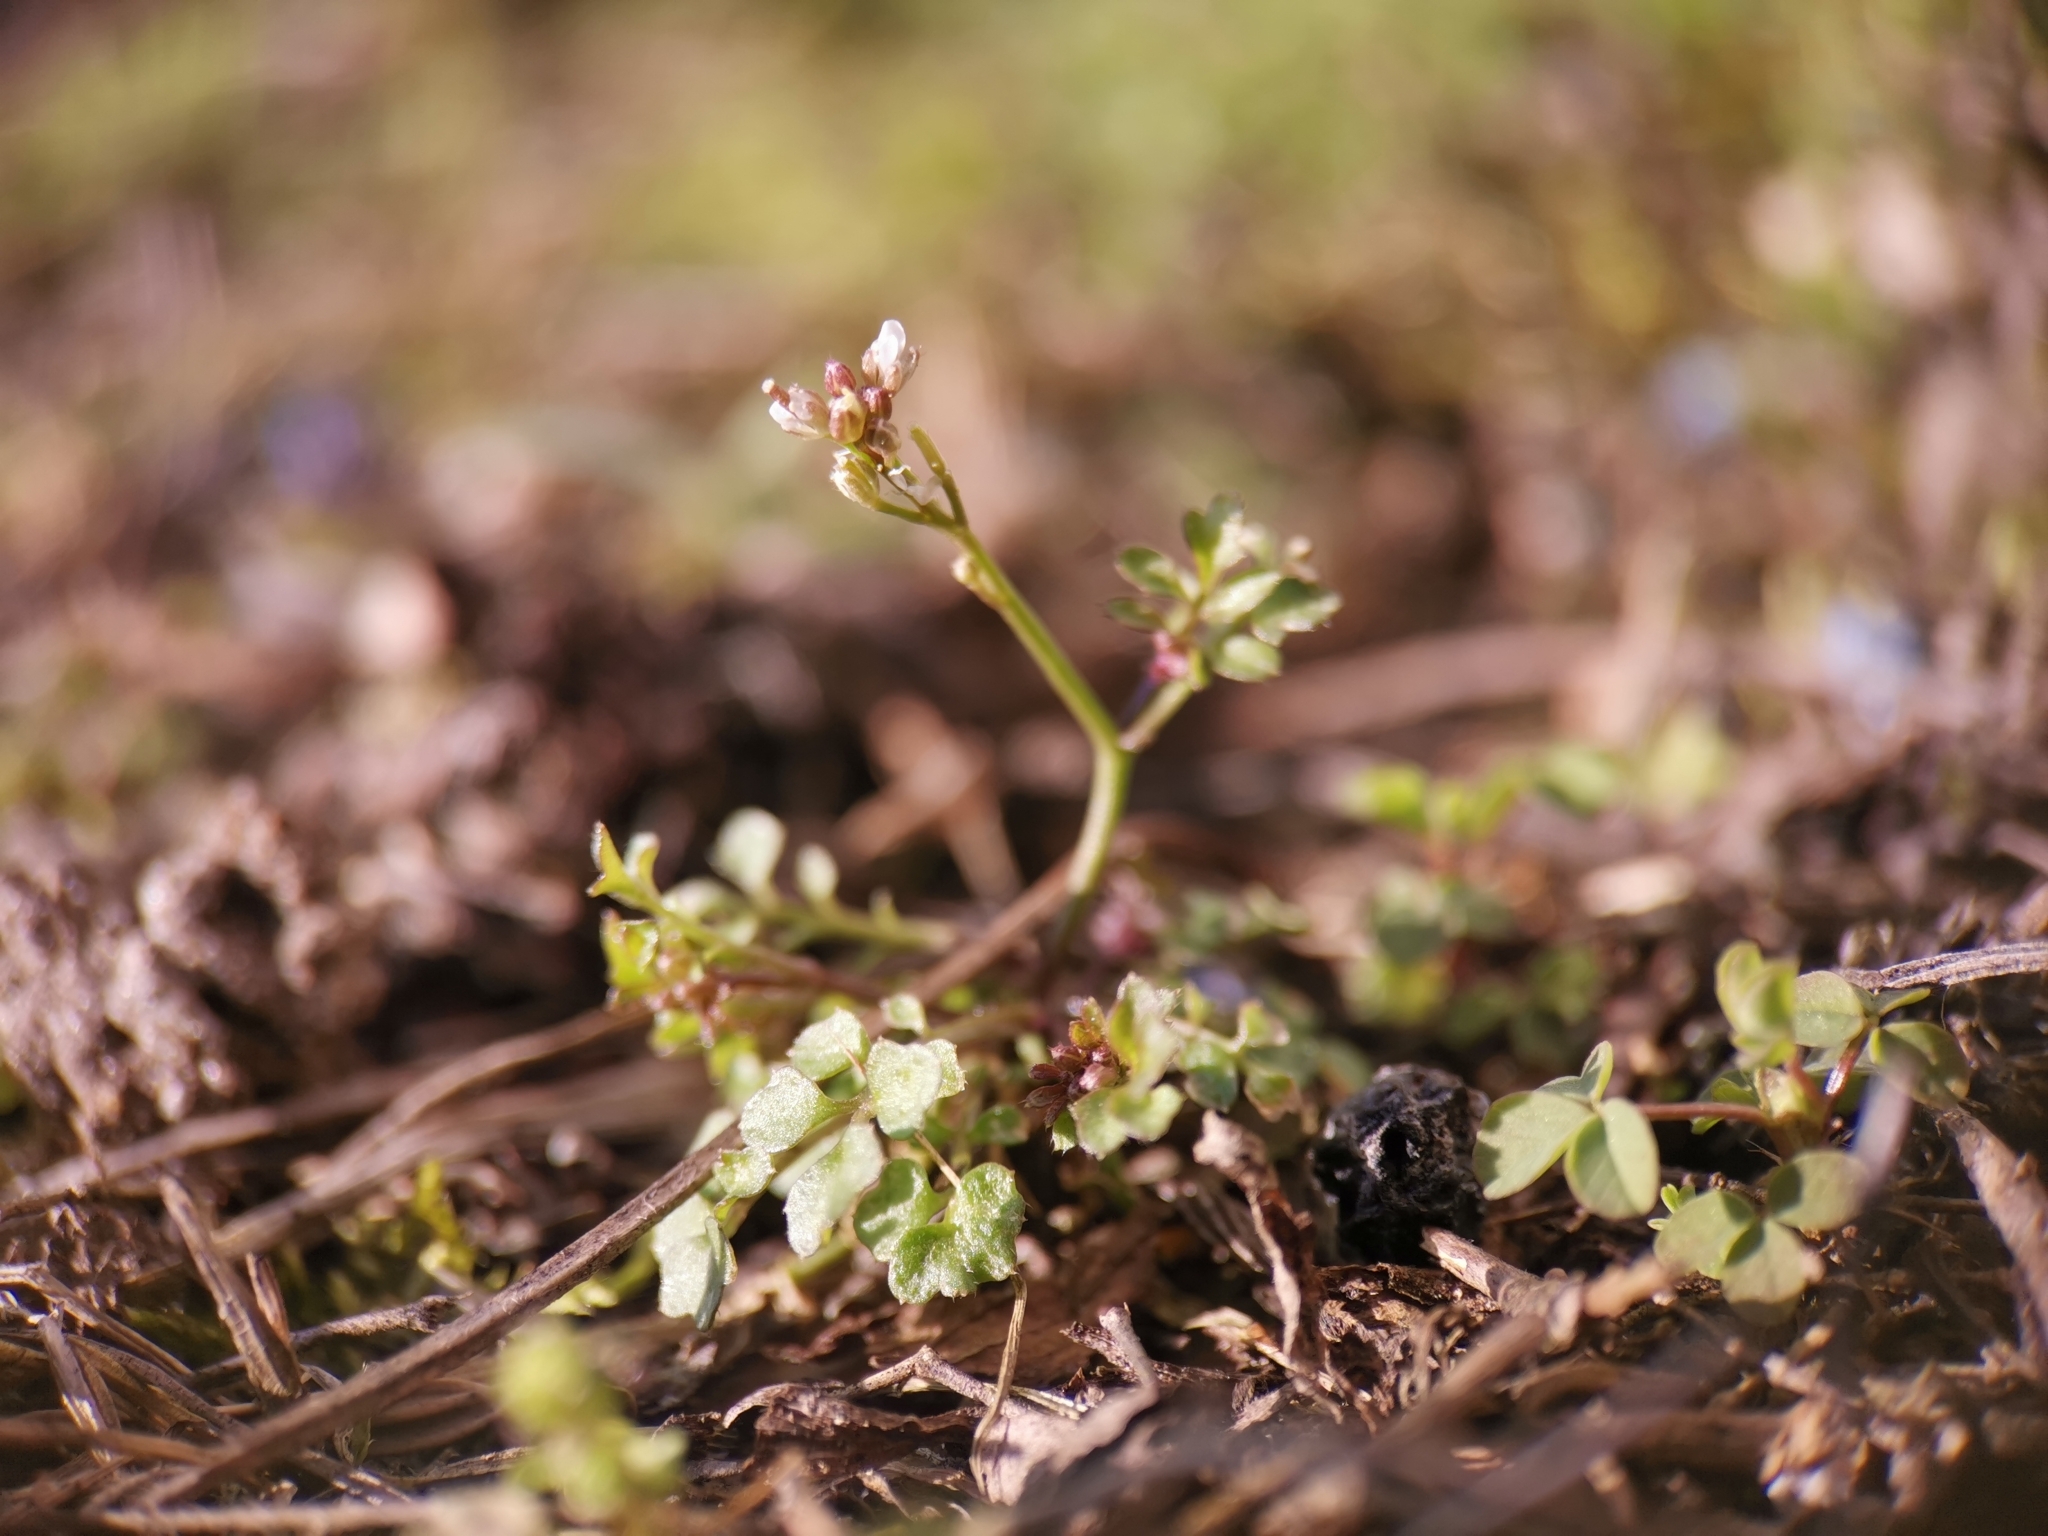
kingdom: Plantae
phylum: Tracheophyta
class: Magnoliopsida
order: Brassicales
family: Brassicaceae
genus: Cardamine
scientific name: Cardamine hirsuta
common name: Hairy bittercress
